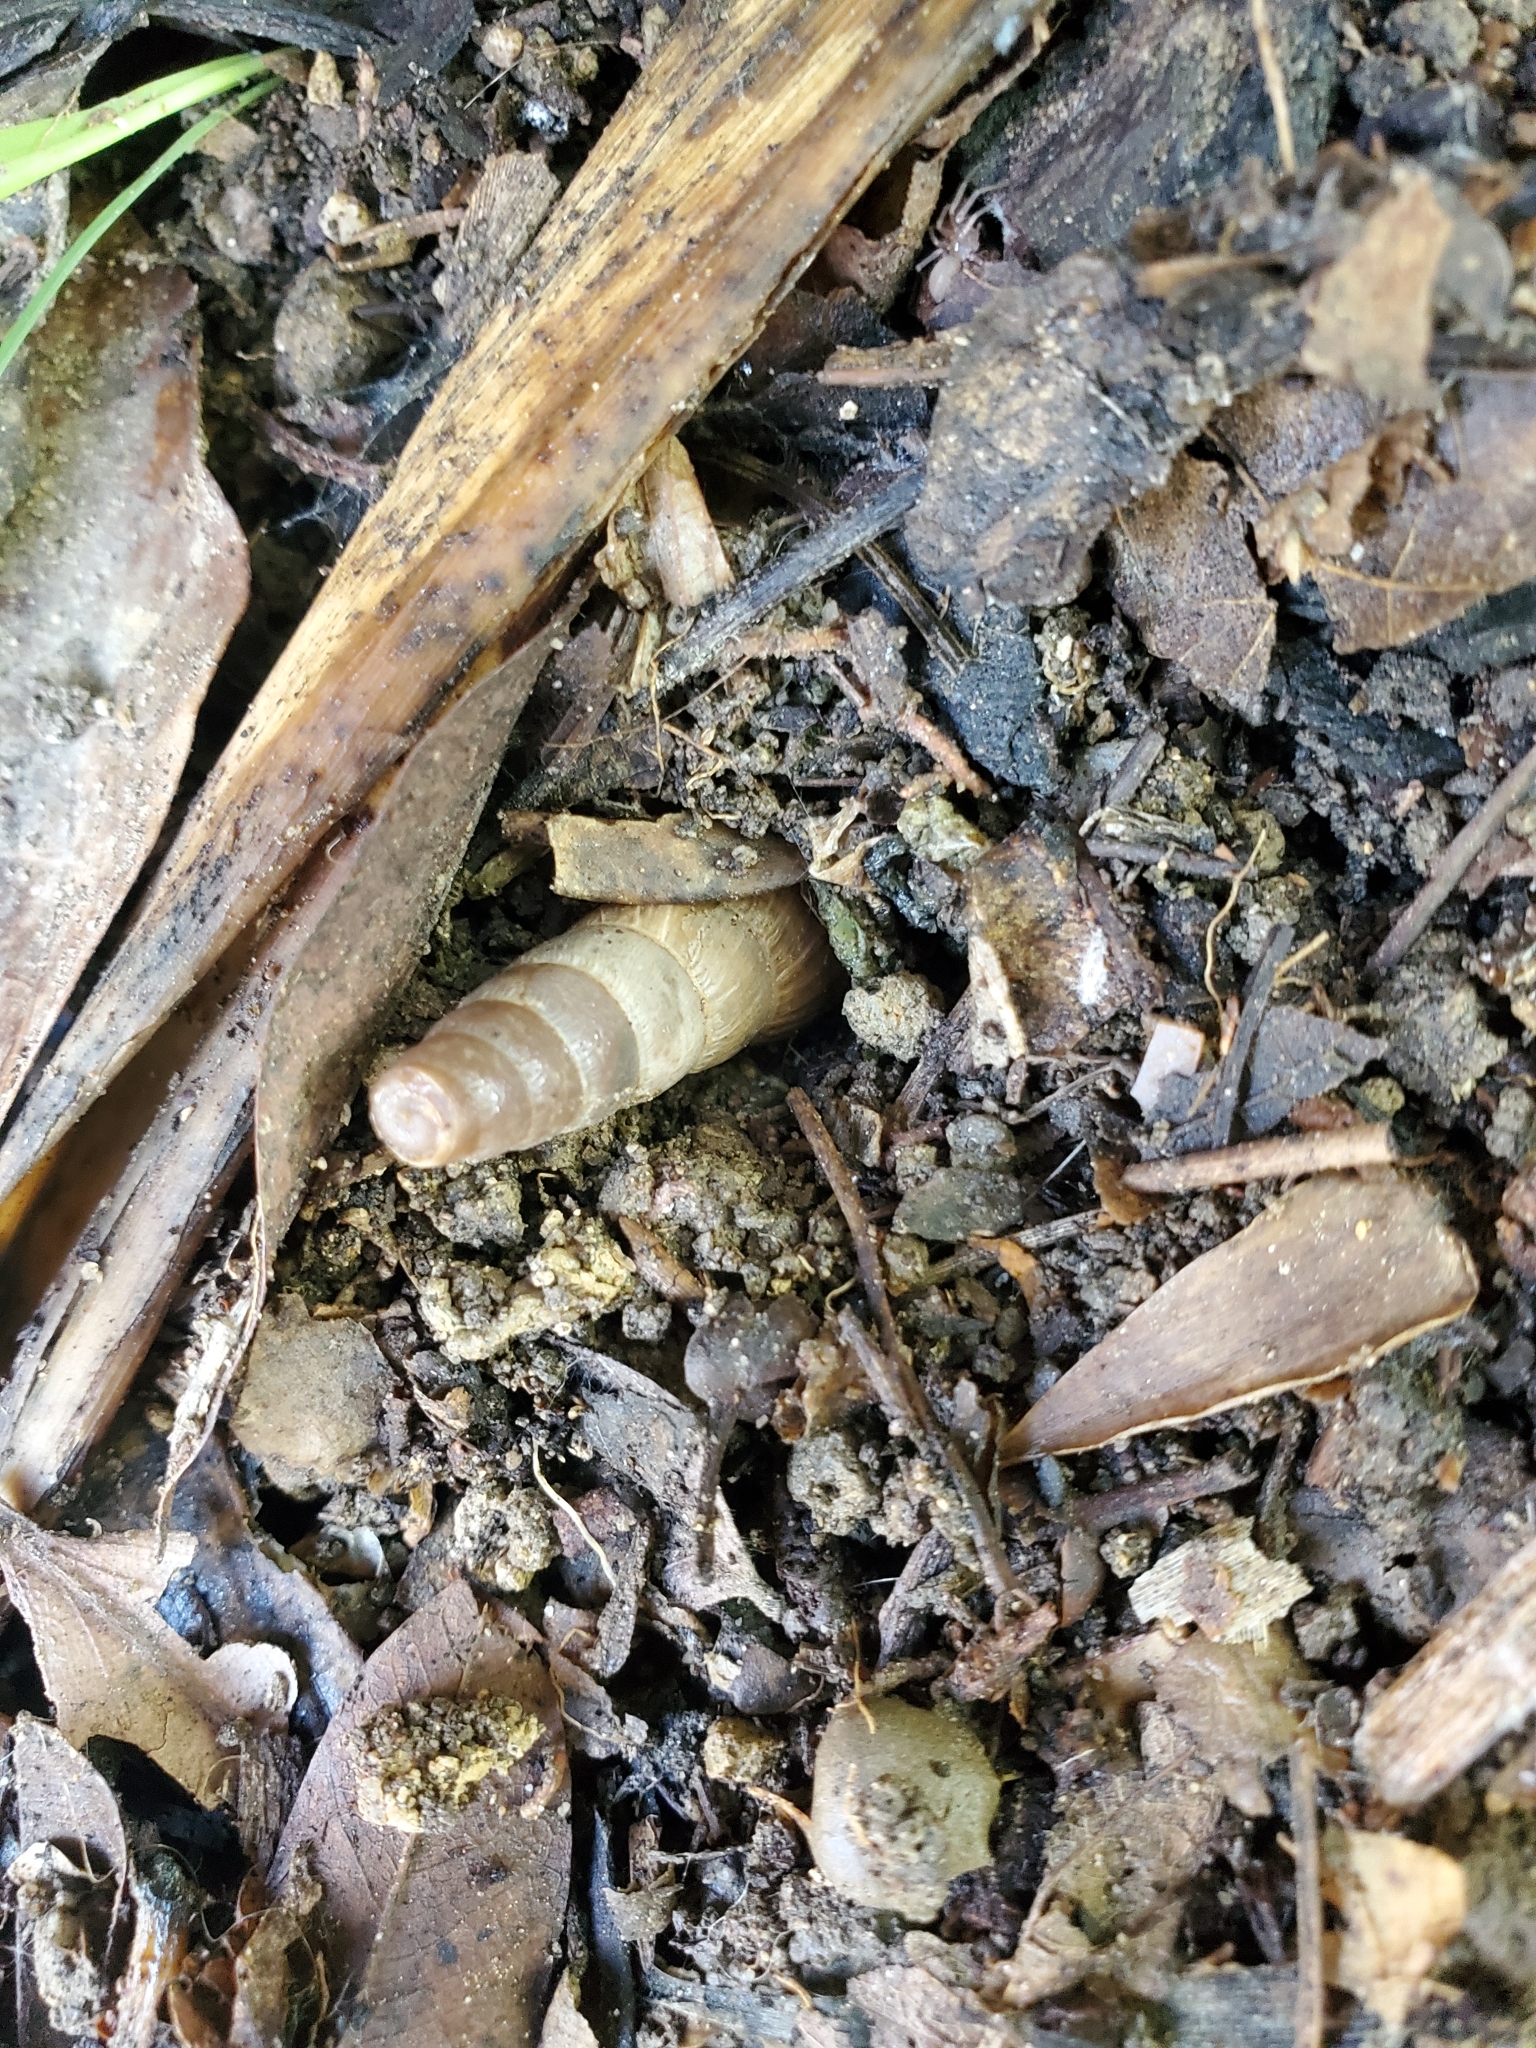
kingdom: Animalia
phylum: Mollusca
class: Gastropoda
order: Stylommatophora
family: Achatinidae
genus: Rumina
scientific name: Rumina decollata
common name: Decollate snail
